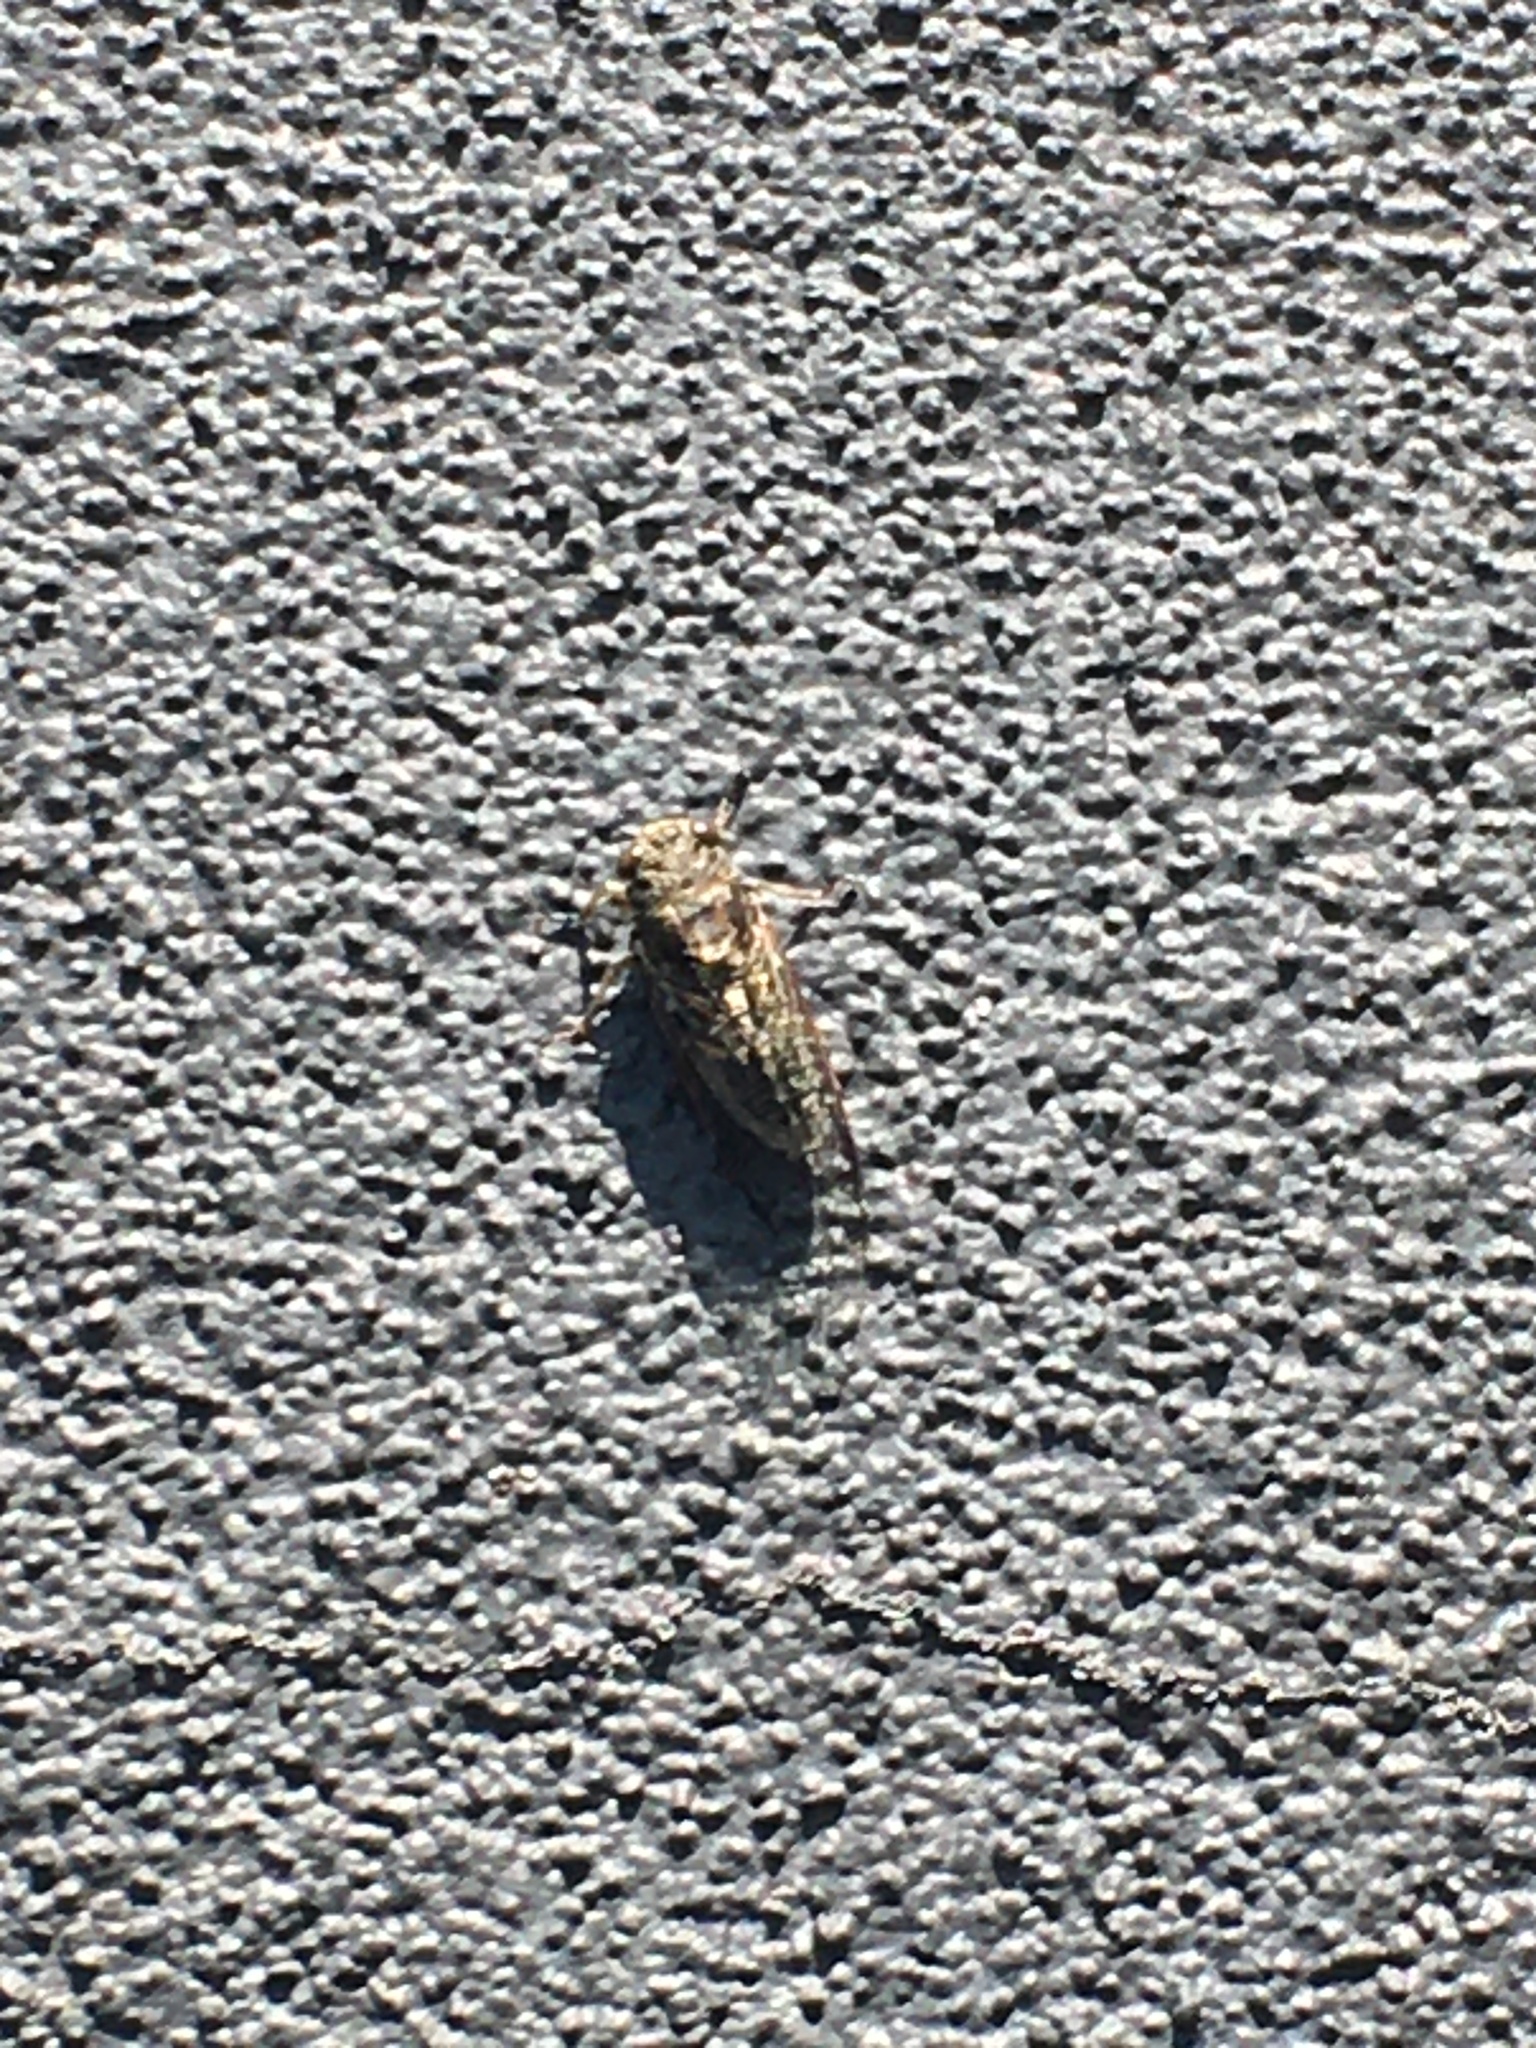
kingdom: Animalia
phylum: Arthropoda
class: Insecta
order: Hemiptera
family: Cicadidae
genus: Notopsalta
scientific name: Notopsalta sericea
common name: Clay bank cicada
